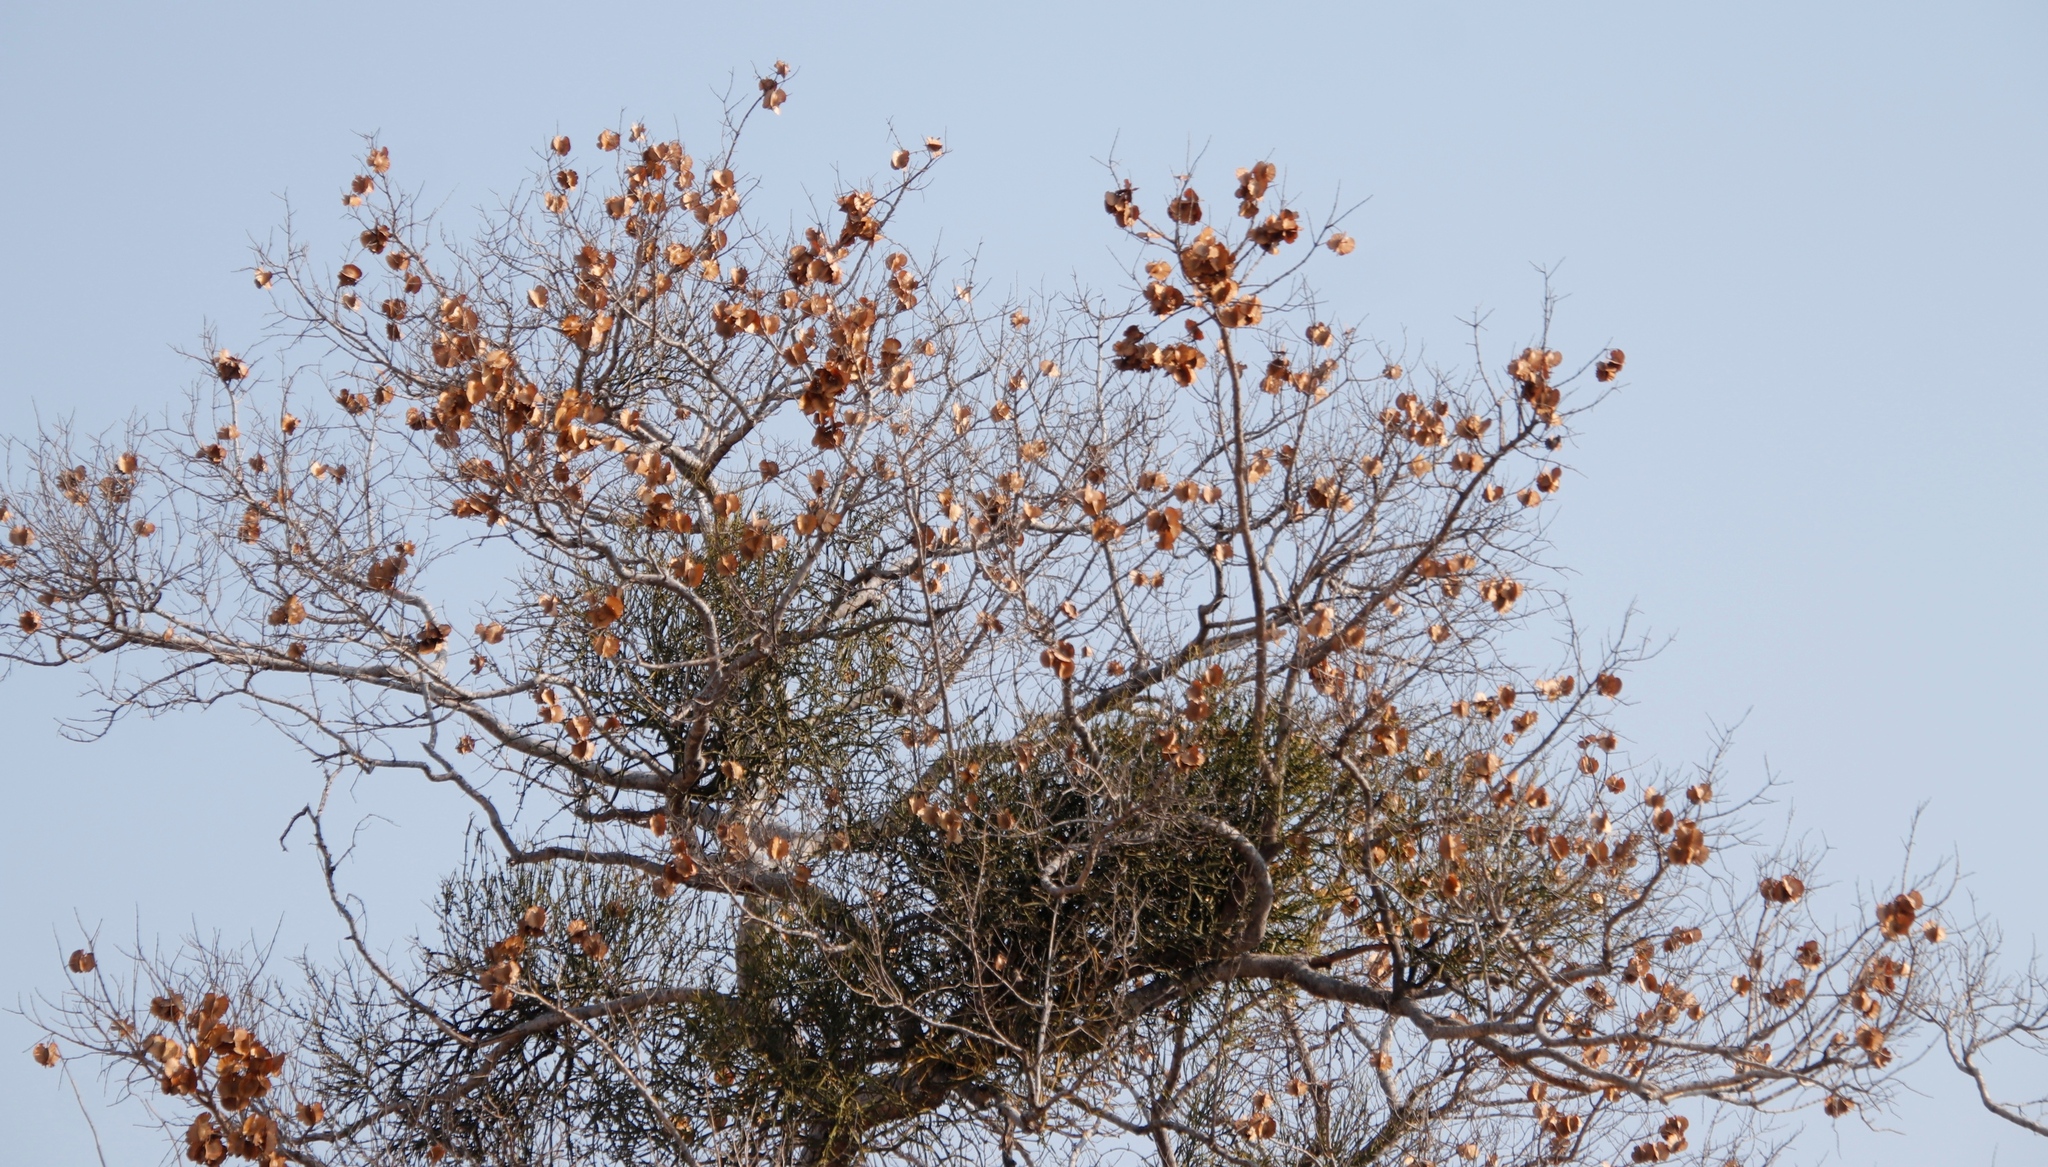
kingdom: Plantae
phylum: Tracheophyta
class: Magnoliopsida
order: Myrtales
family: Combretaceae
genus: Combretum
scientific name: Combretum zeyheri
